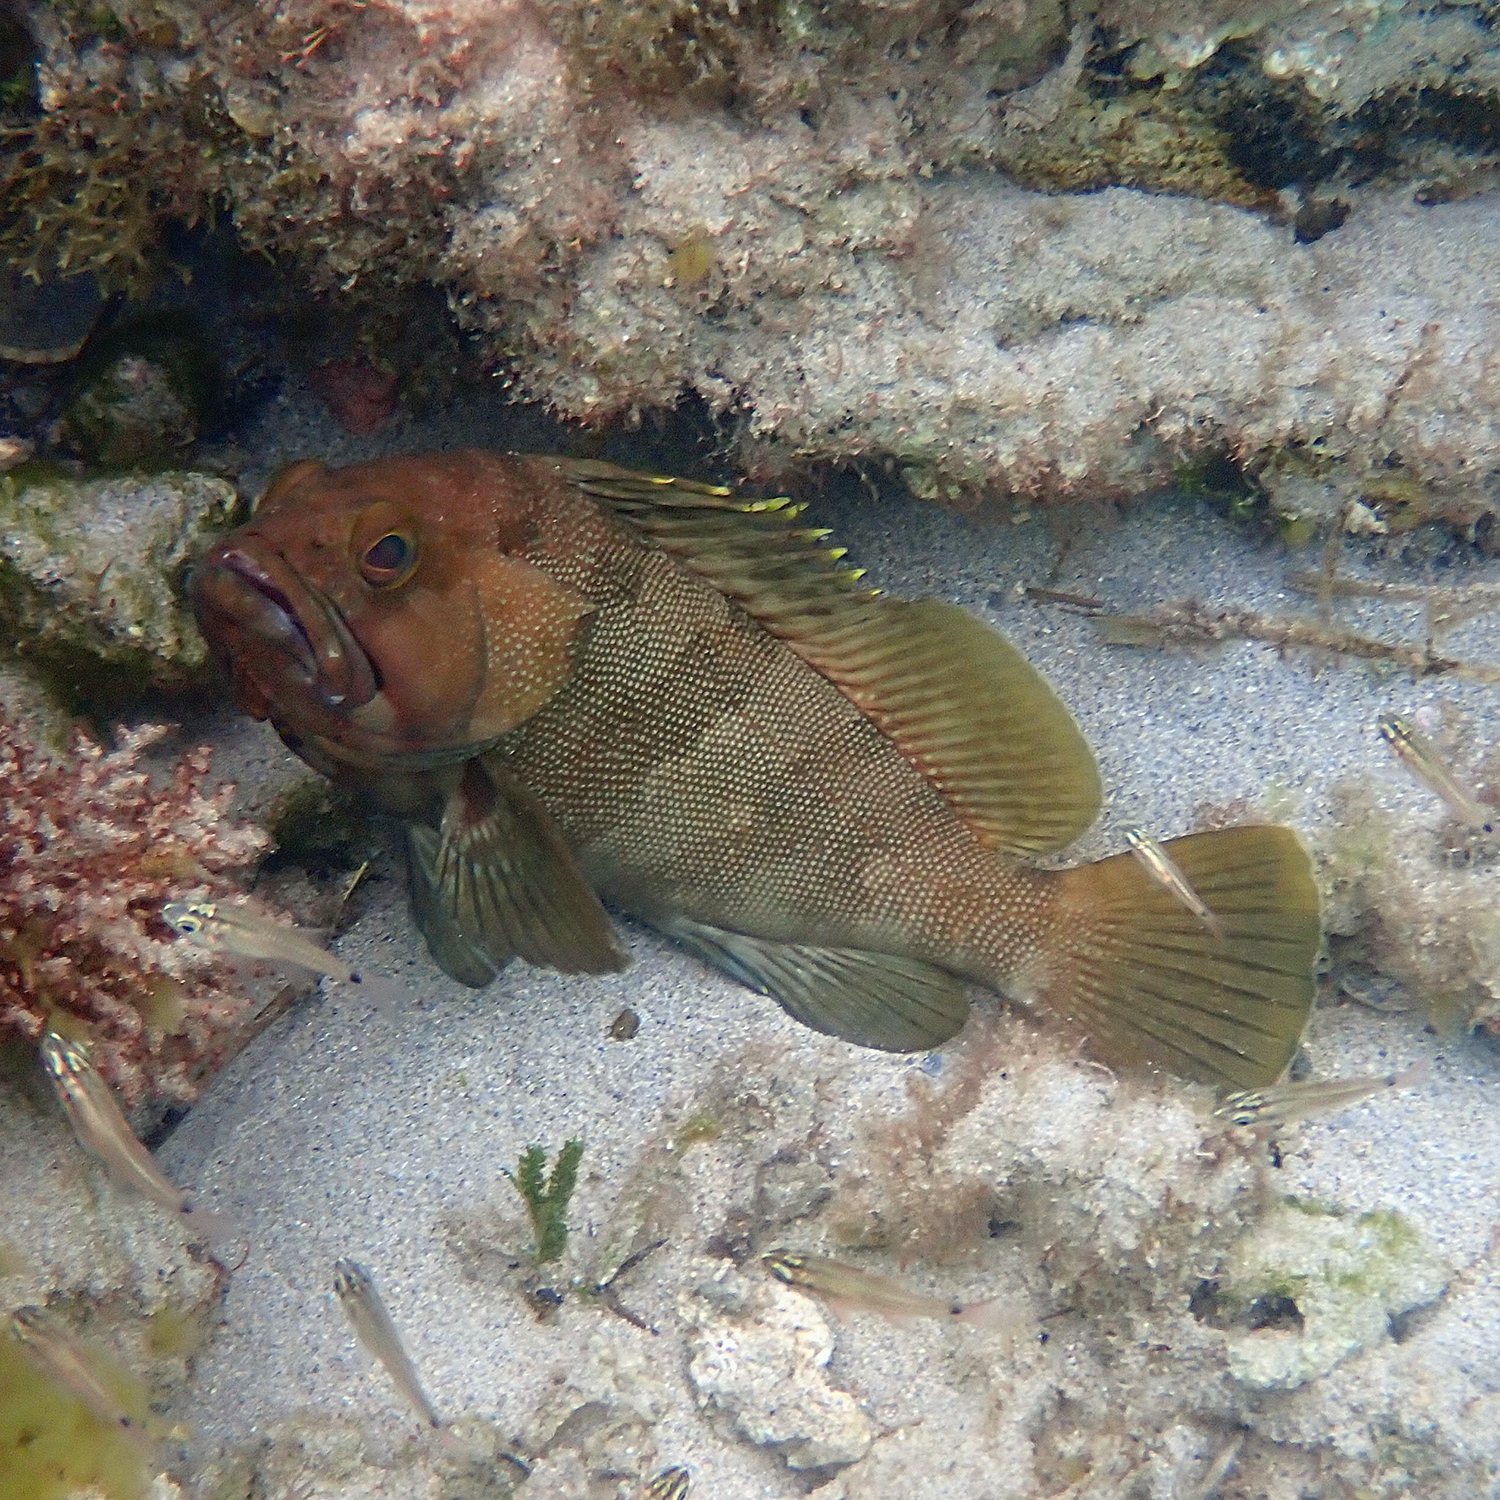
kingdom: Animalia
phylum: Chordata
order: Perciformes
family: Serranidae
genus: Epinephelus
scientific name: Epinephelus rivulatus
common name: Halfmoon grouper
